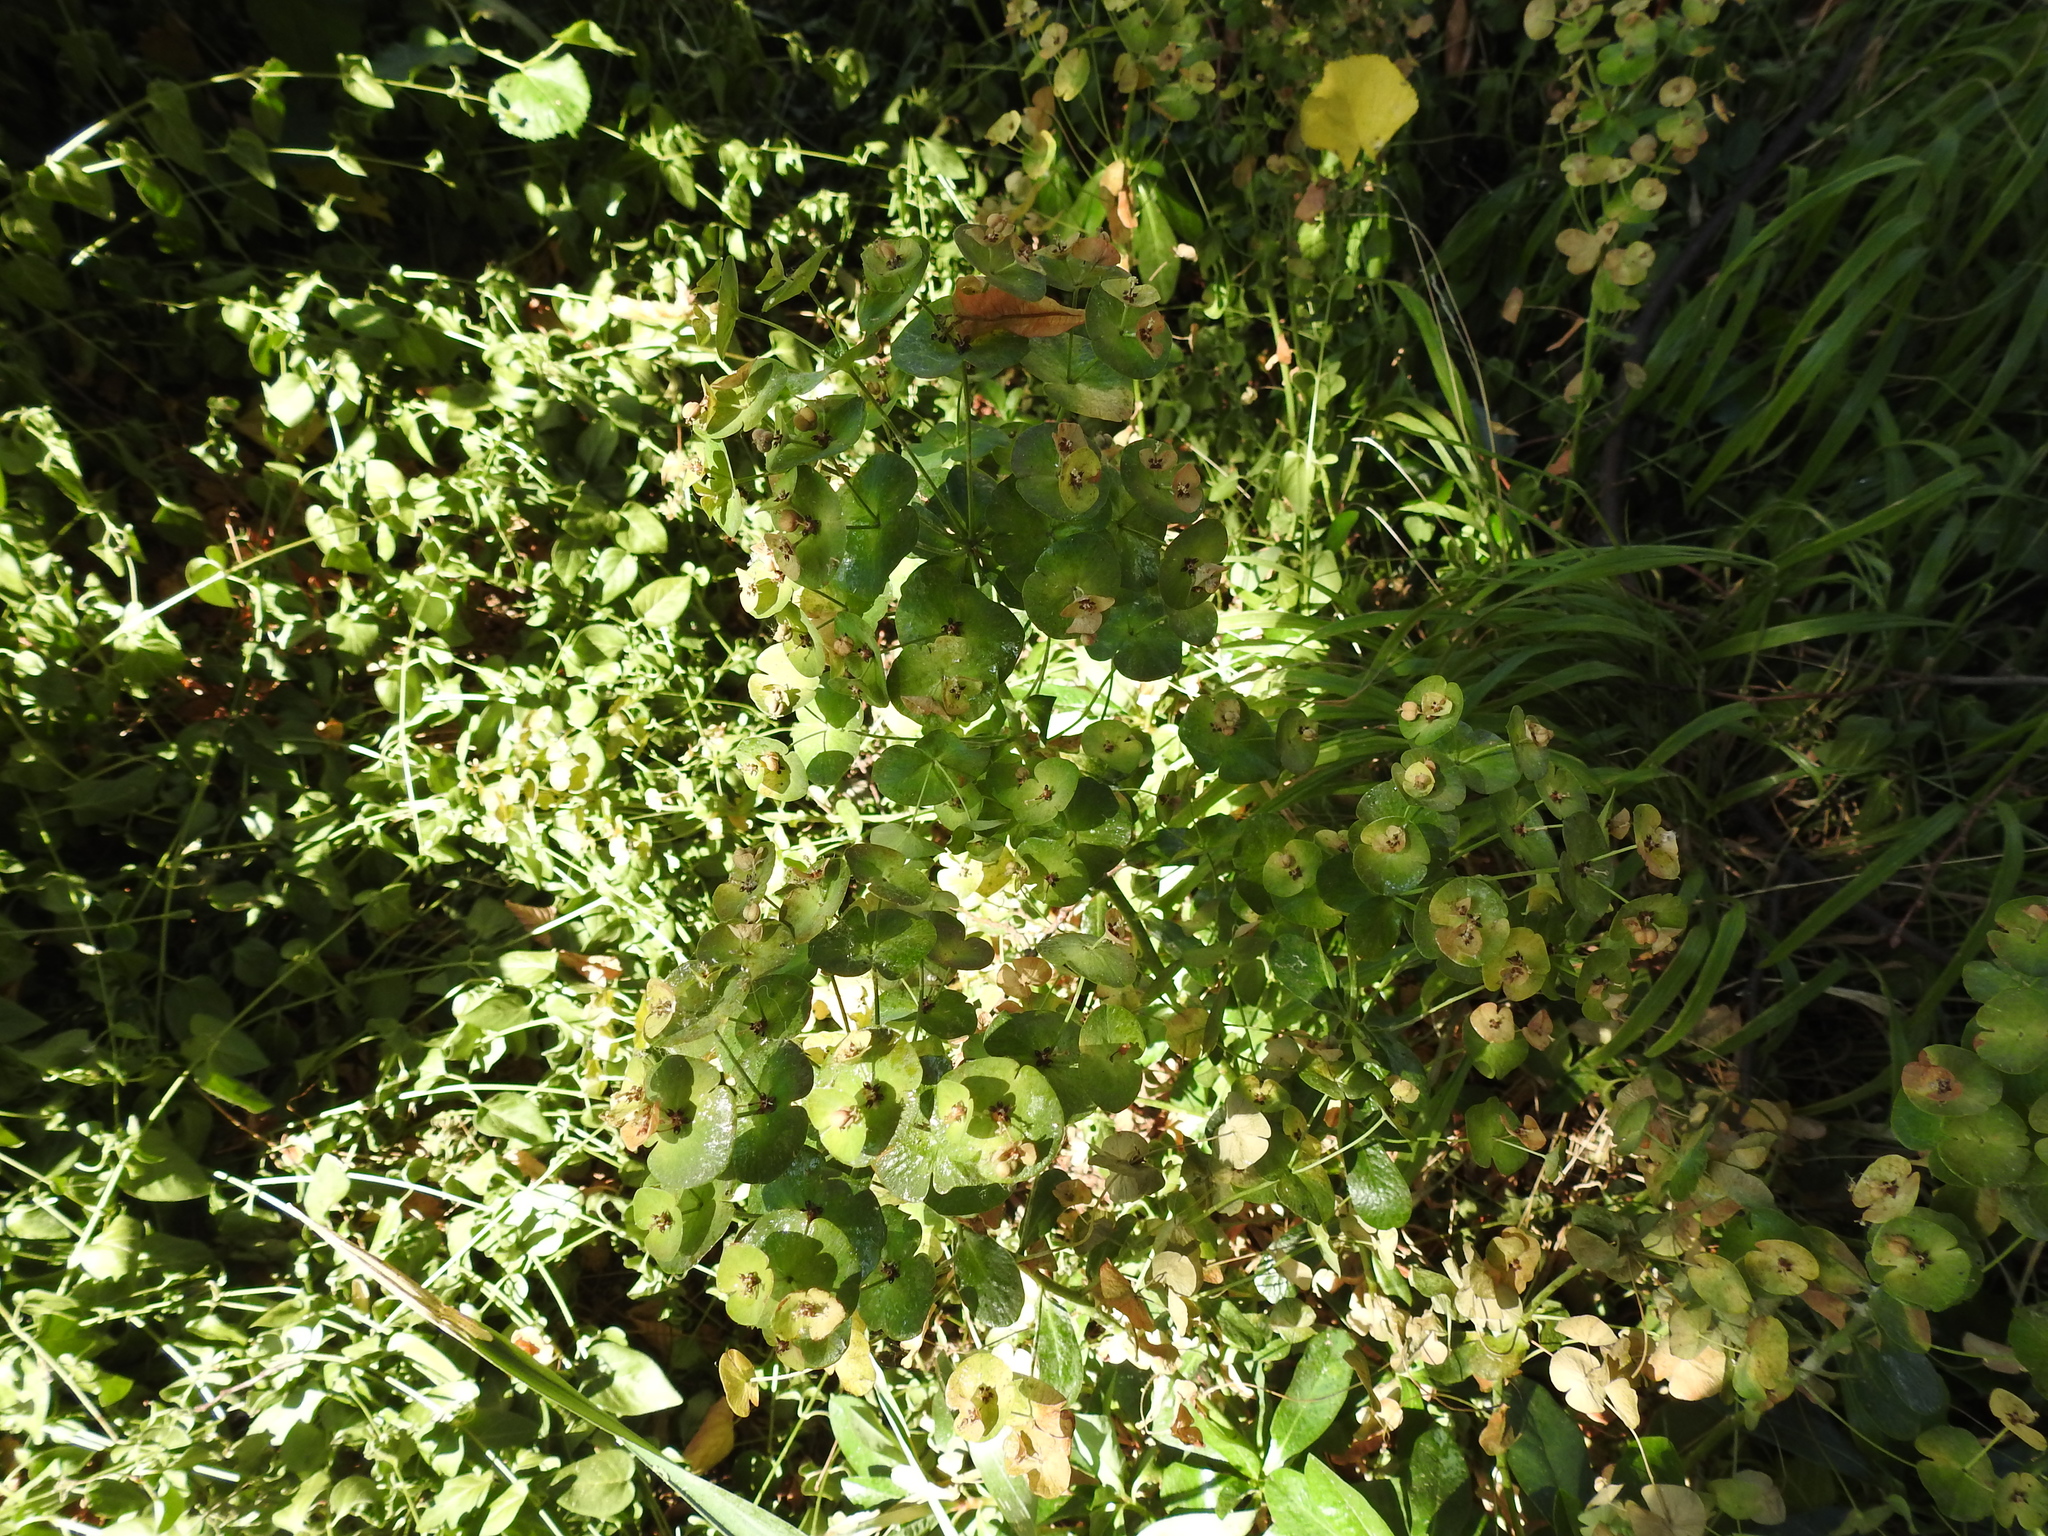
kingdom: Plantae
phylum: Tracheophyta
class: Magnoliopsida
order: Malpighiales
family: Euphorbiaceae
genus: Euphorbia
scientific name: Euphorbia amygdaloides
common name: Wood spurge
